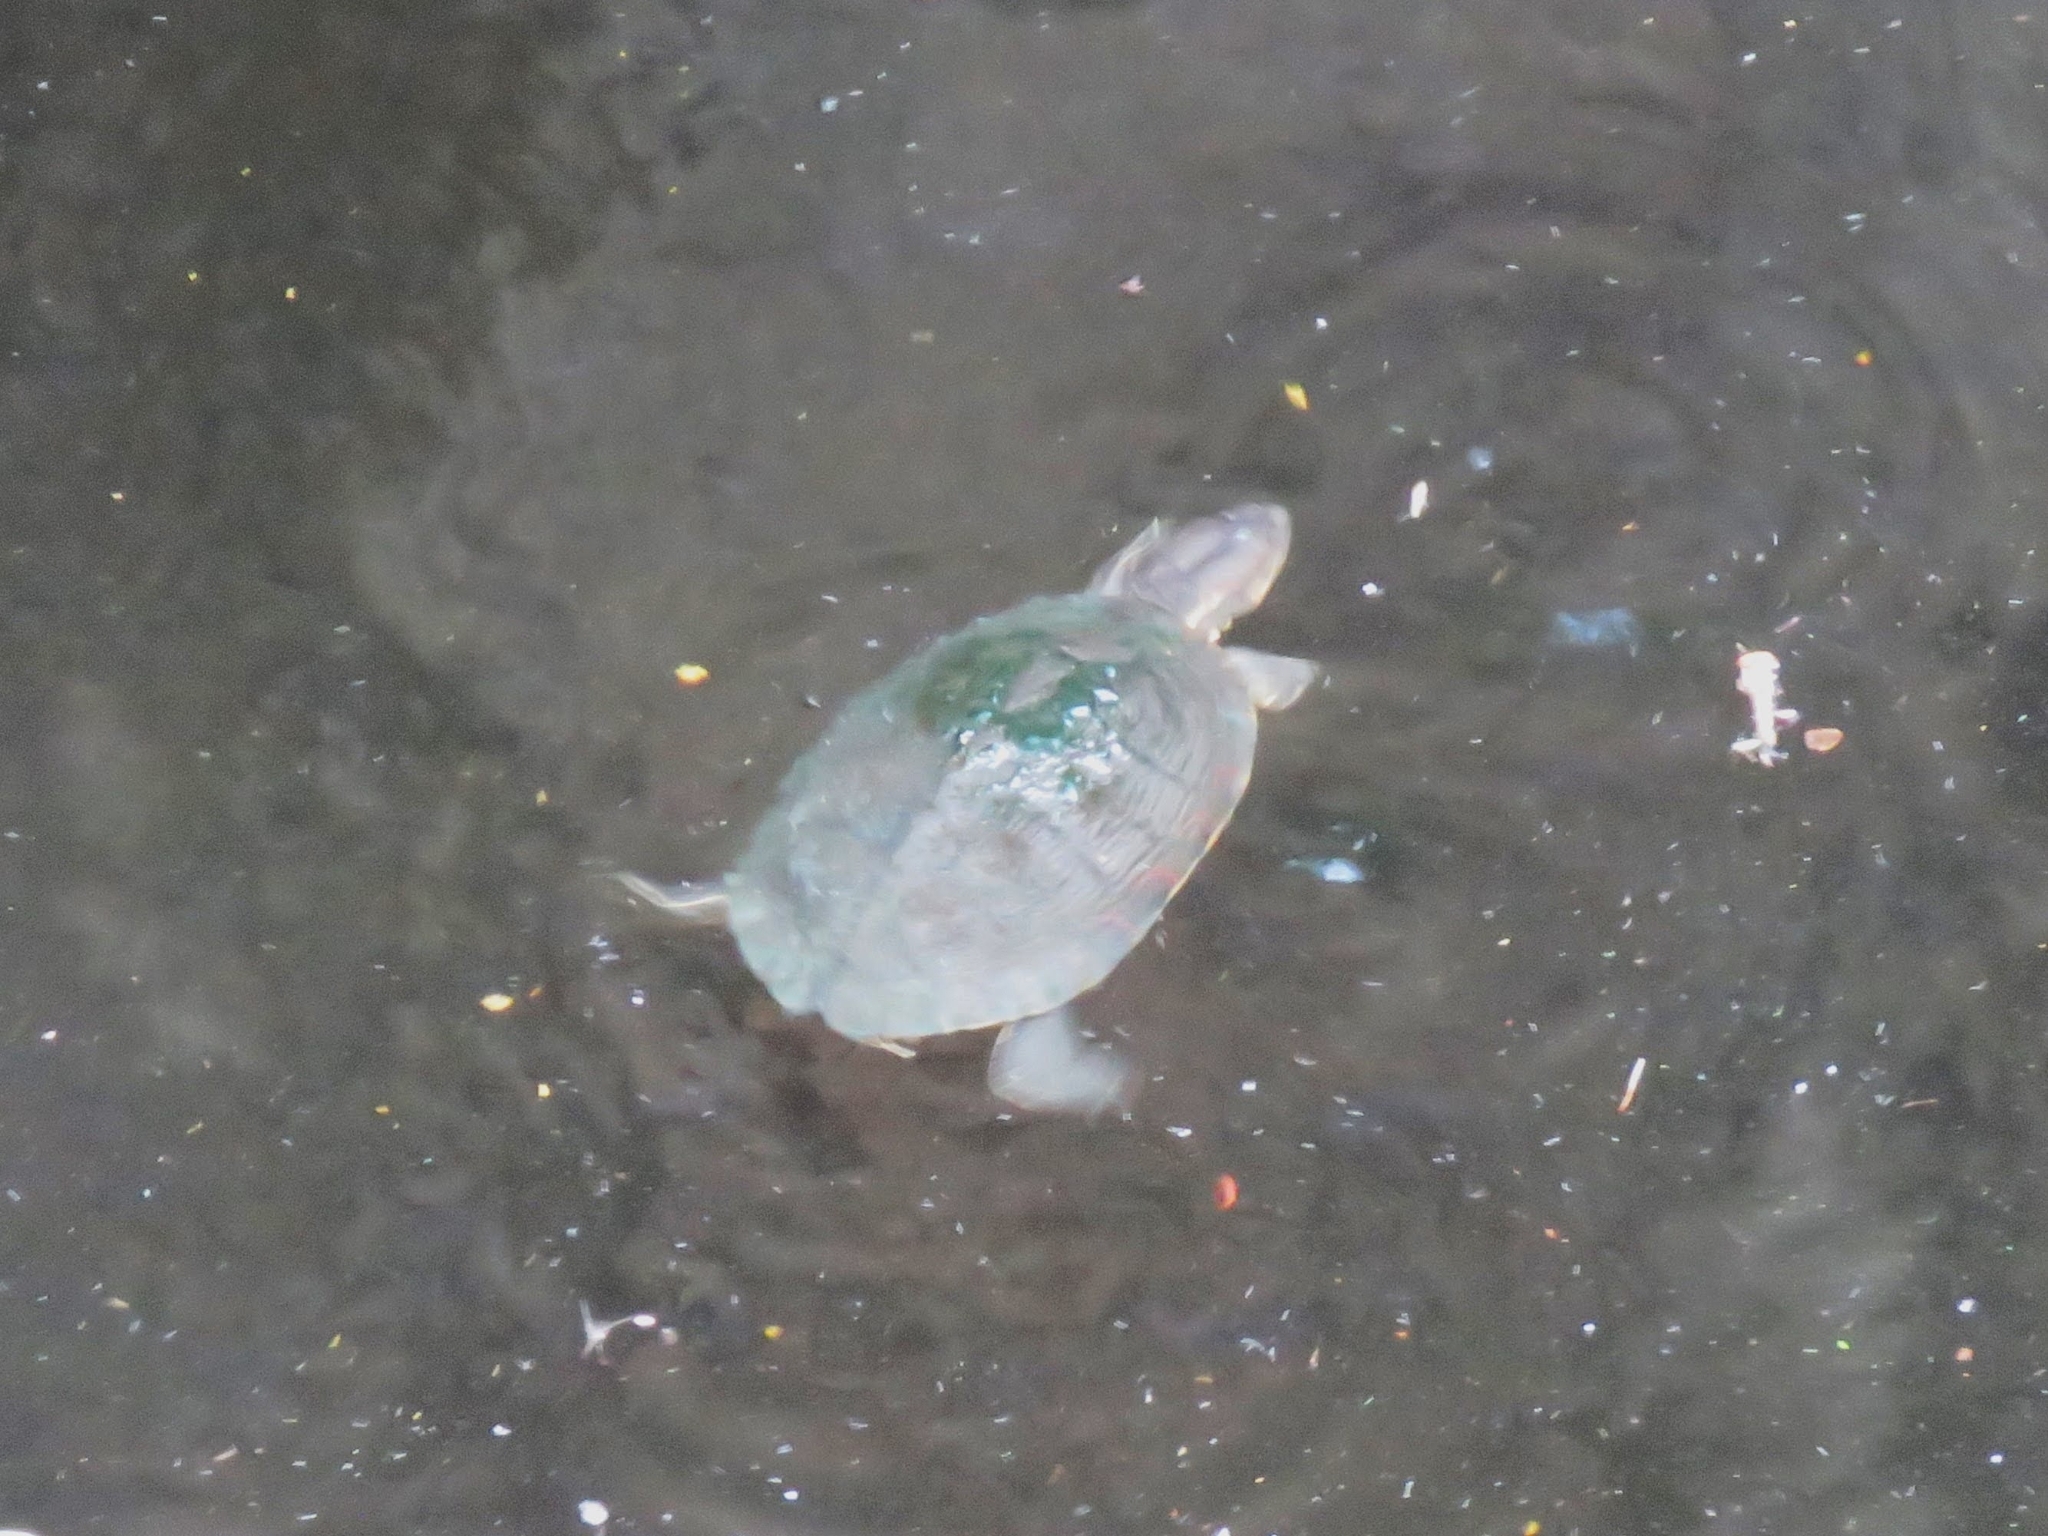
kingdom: Animalia
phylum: Chordata
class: Testudines
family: Emydidae
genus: Trachemys
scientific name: Trachemys decussata
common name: North antillean slider
